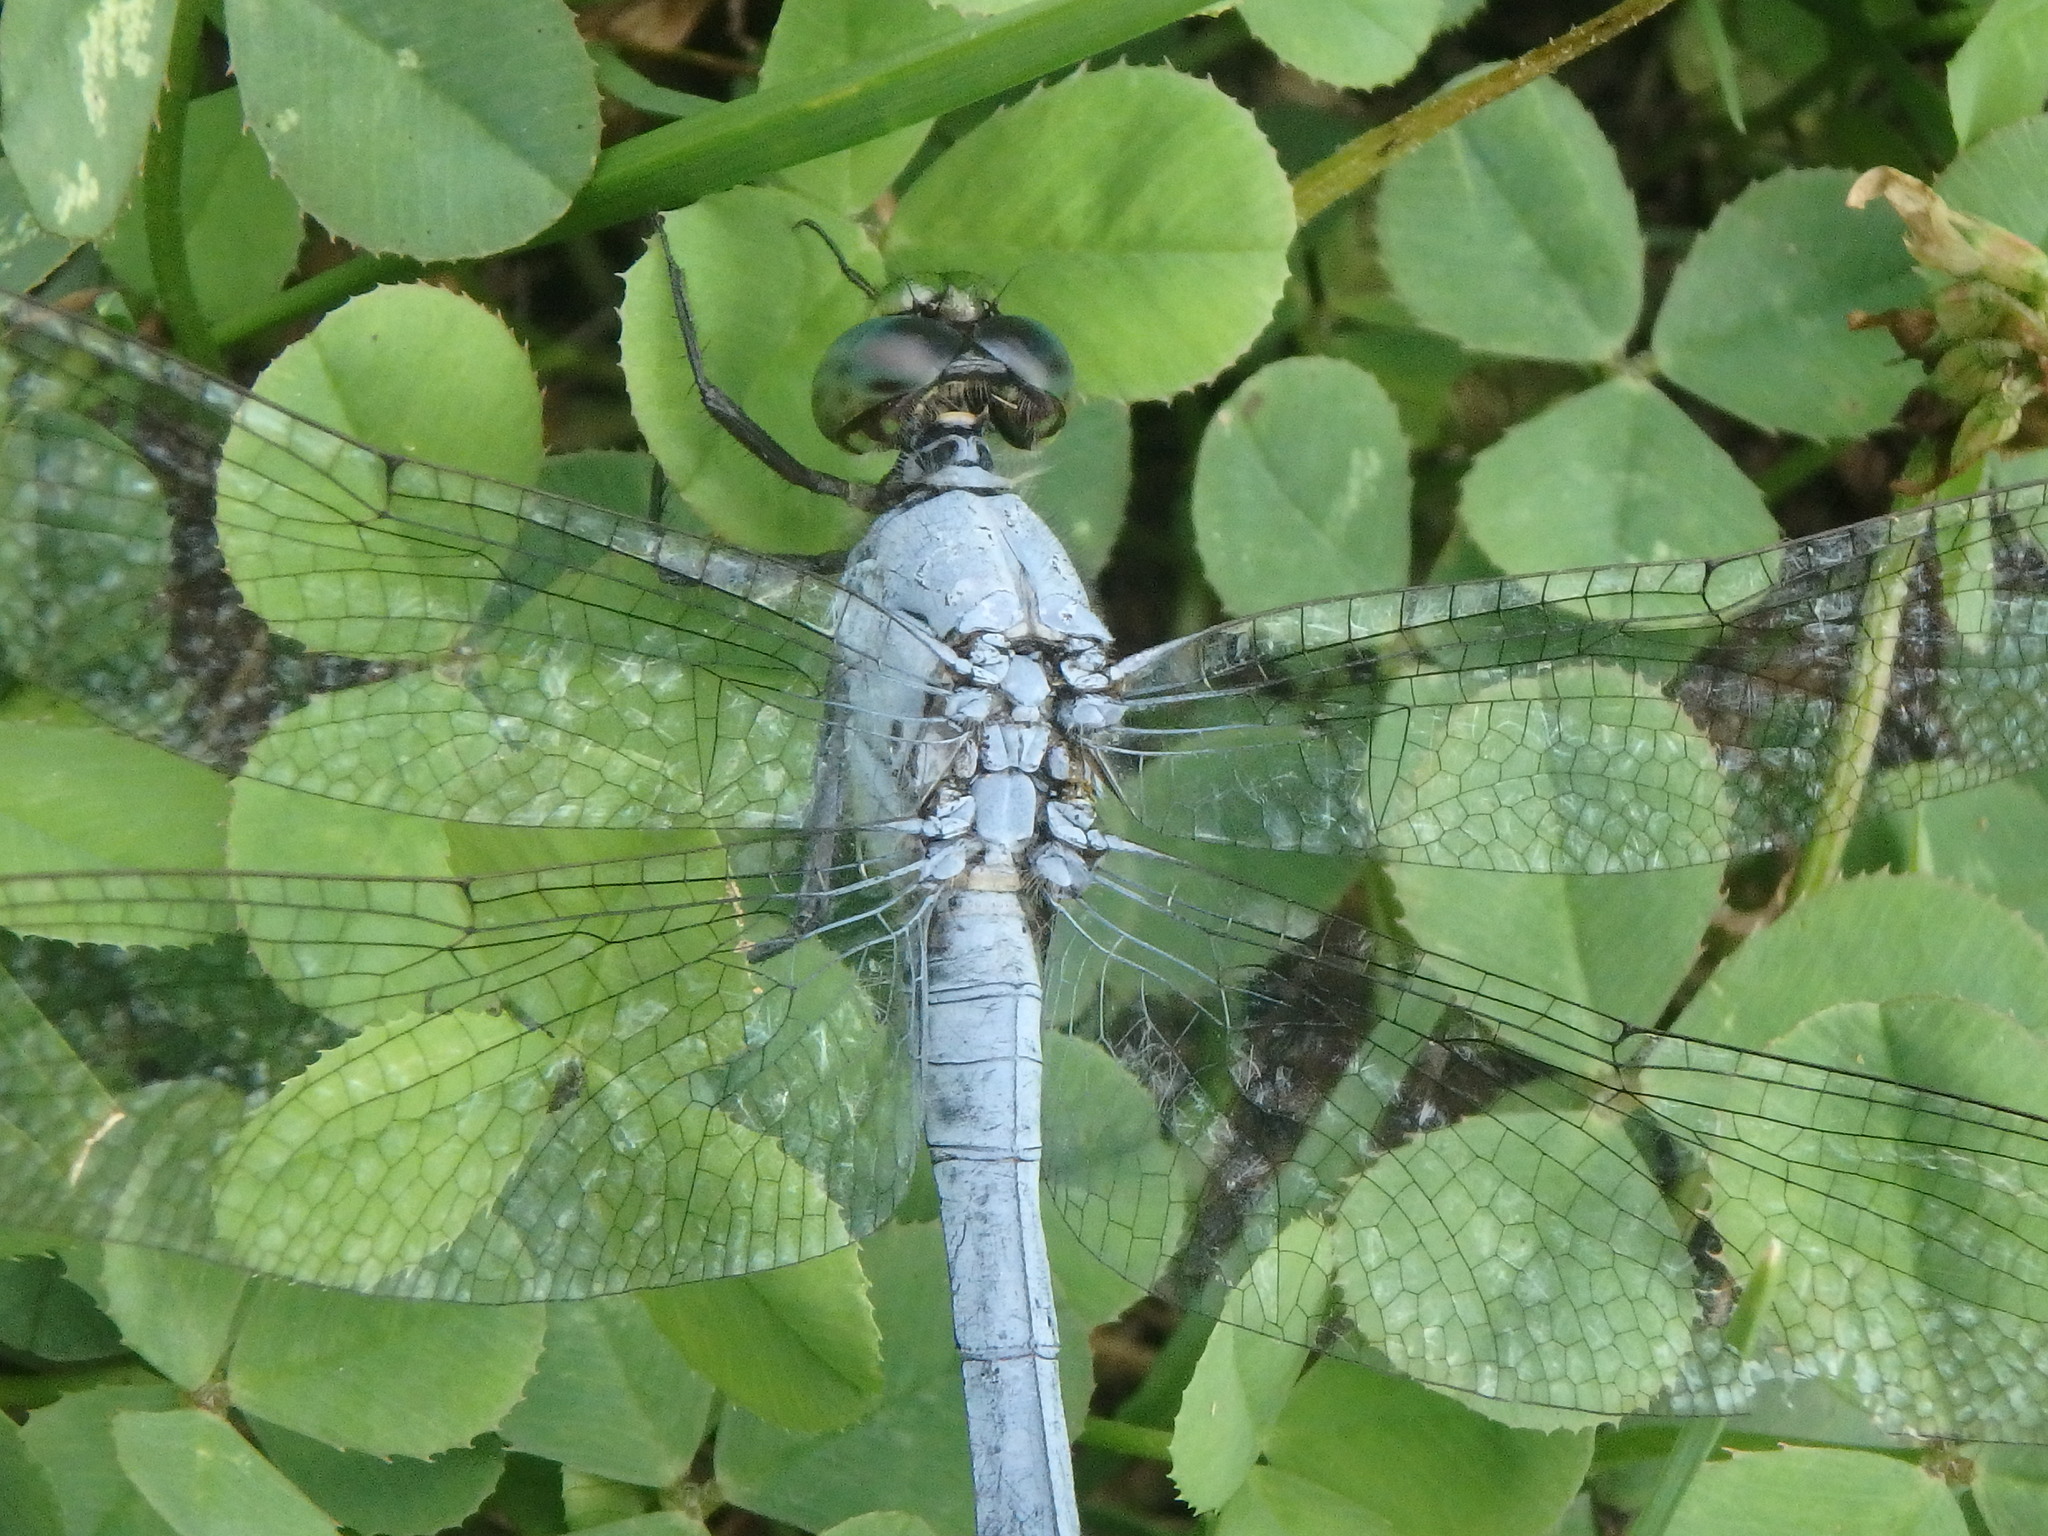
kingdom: Animalia
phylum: Arthropoda
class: Insecta
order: Odonata
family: Libellulidae
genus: Erythemis
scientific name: Erythemis simplicicollis
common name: Eastern pondhawk
